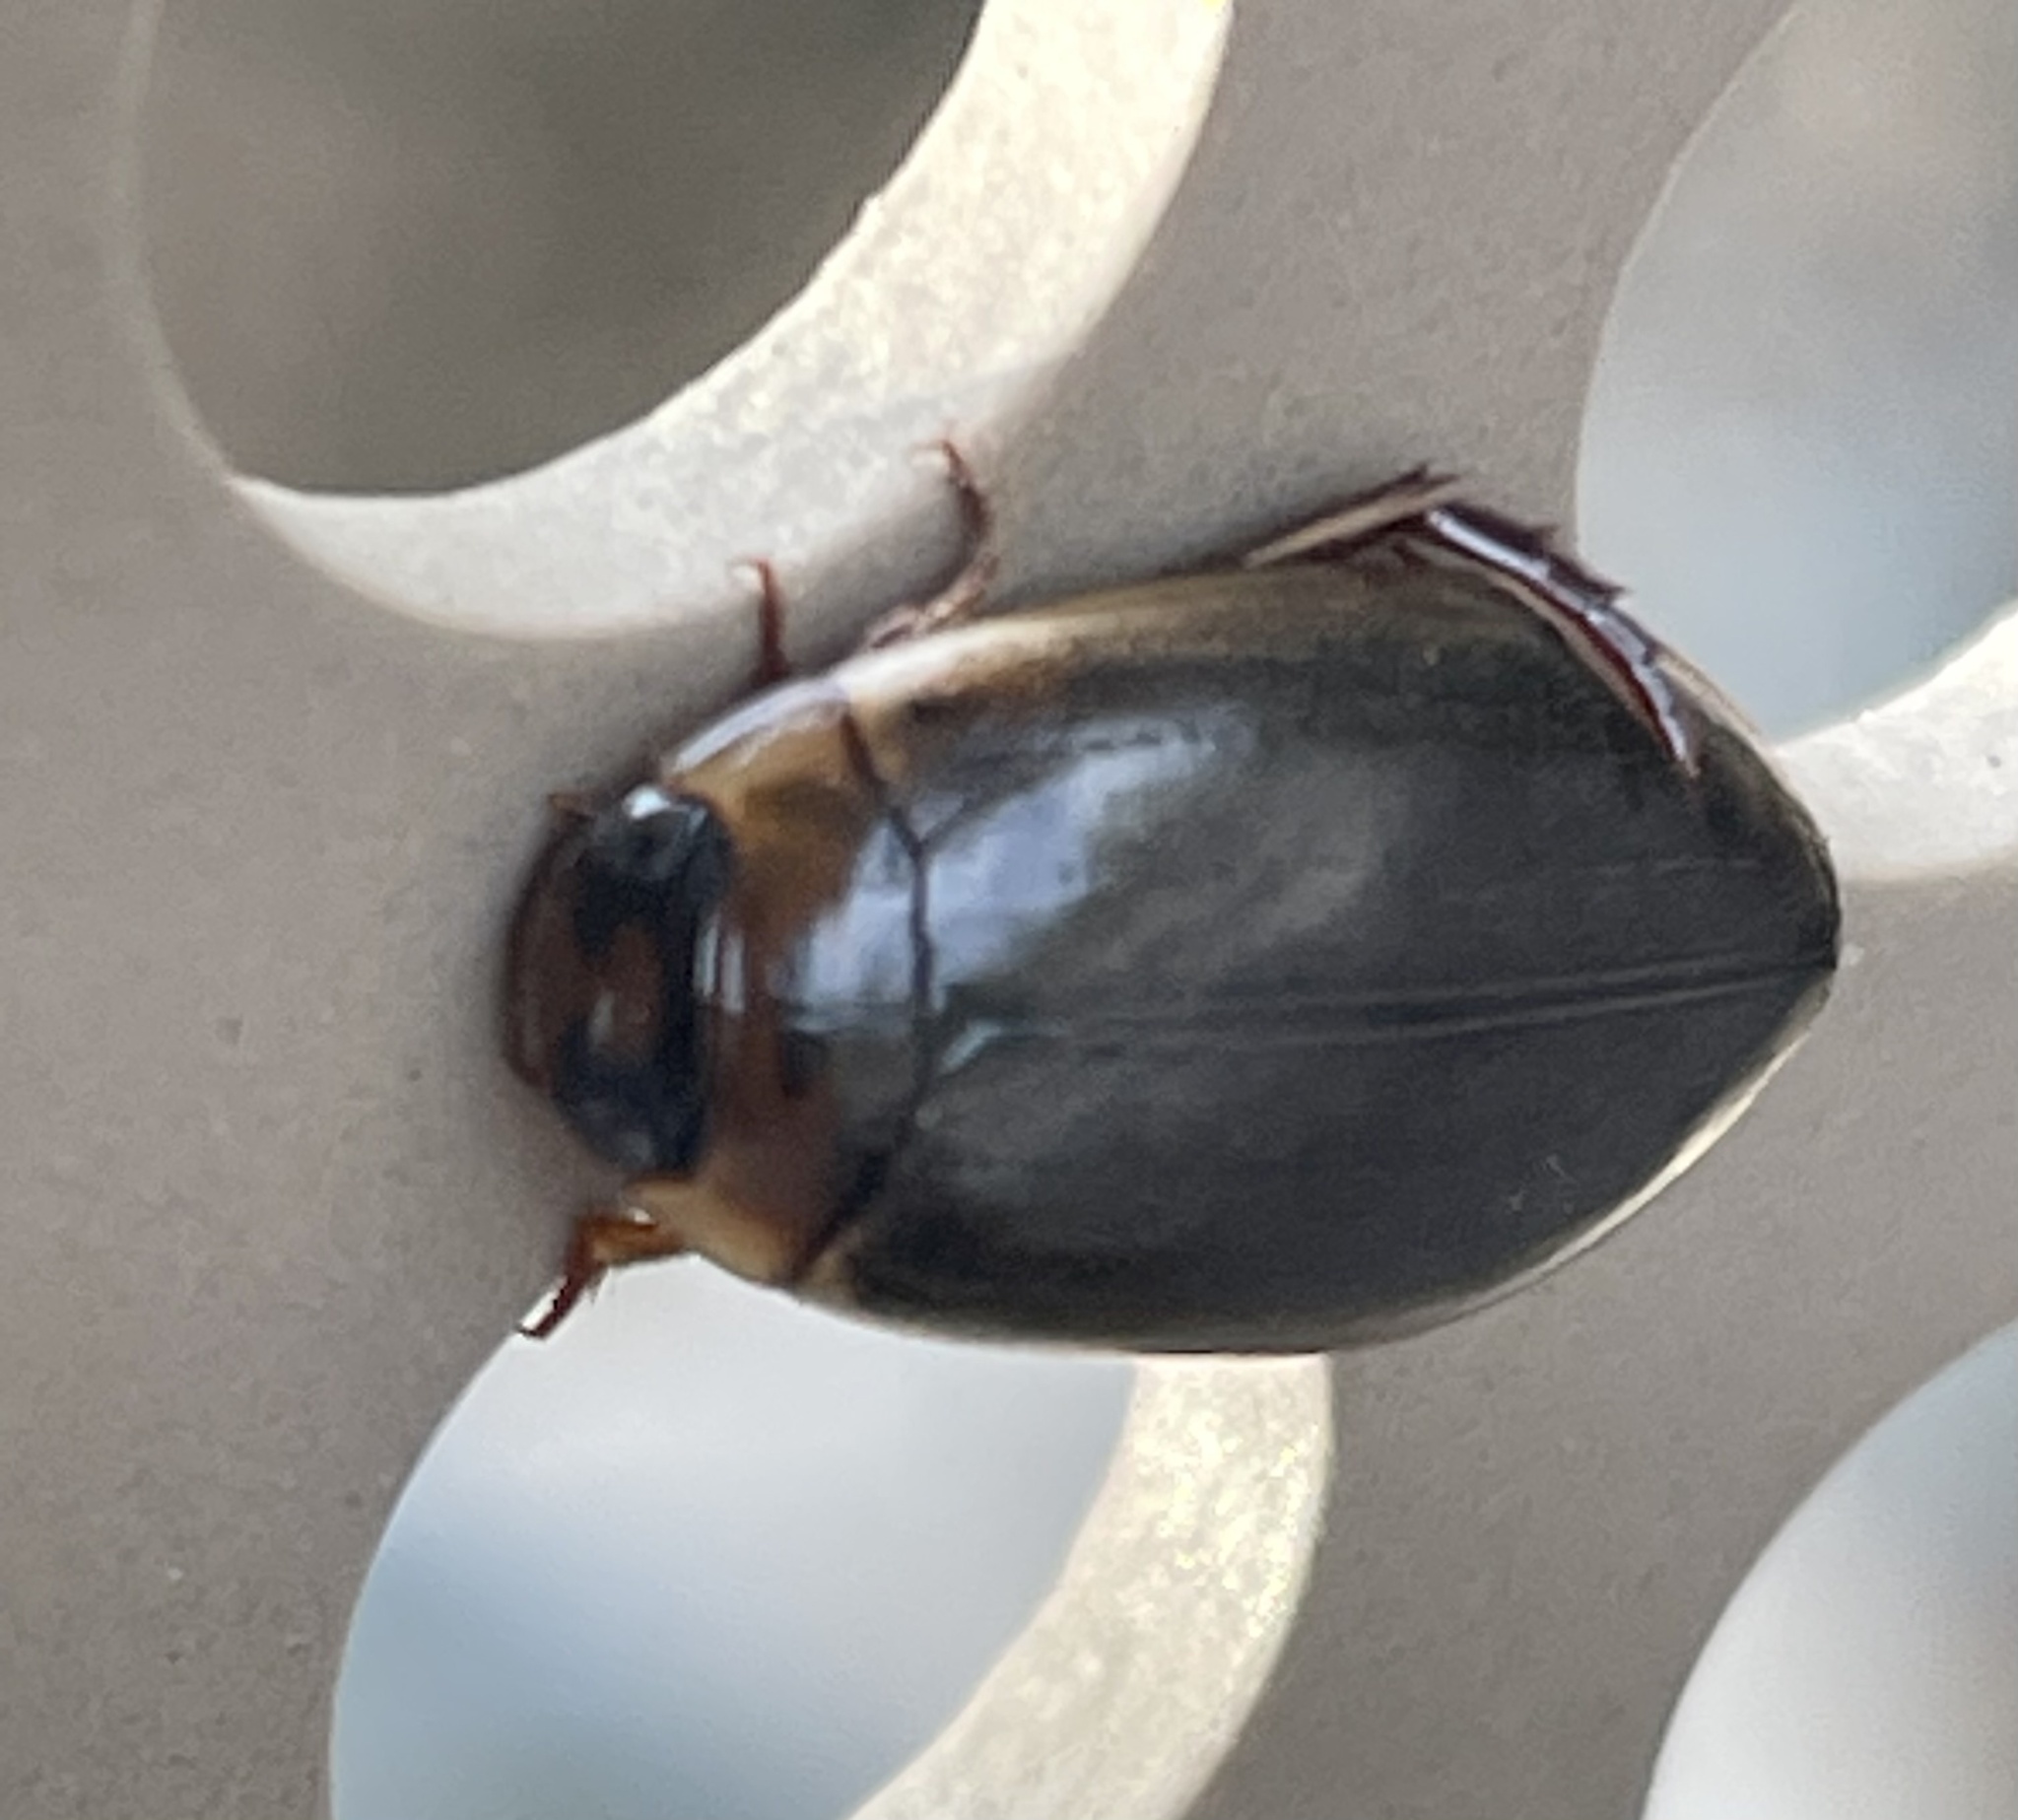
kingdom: Animalia
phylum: Arthropoda
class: Insecta
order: Coleoptera
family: Dytiscidae
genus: Rhantus
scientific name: Rhantus suturalis
